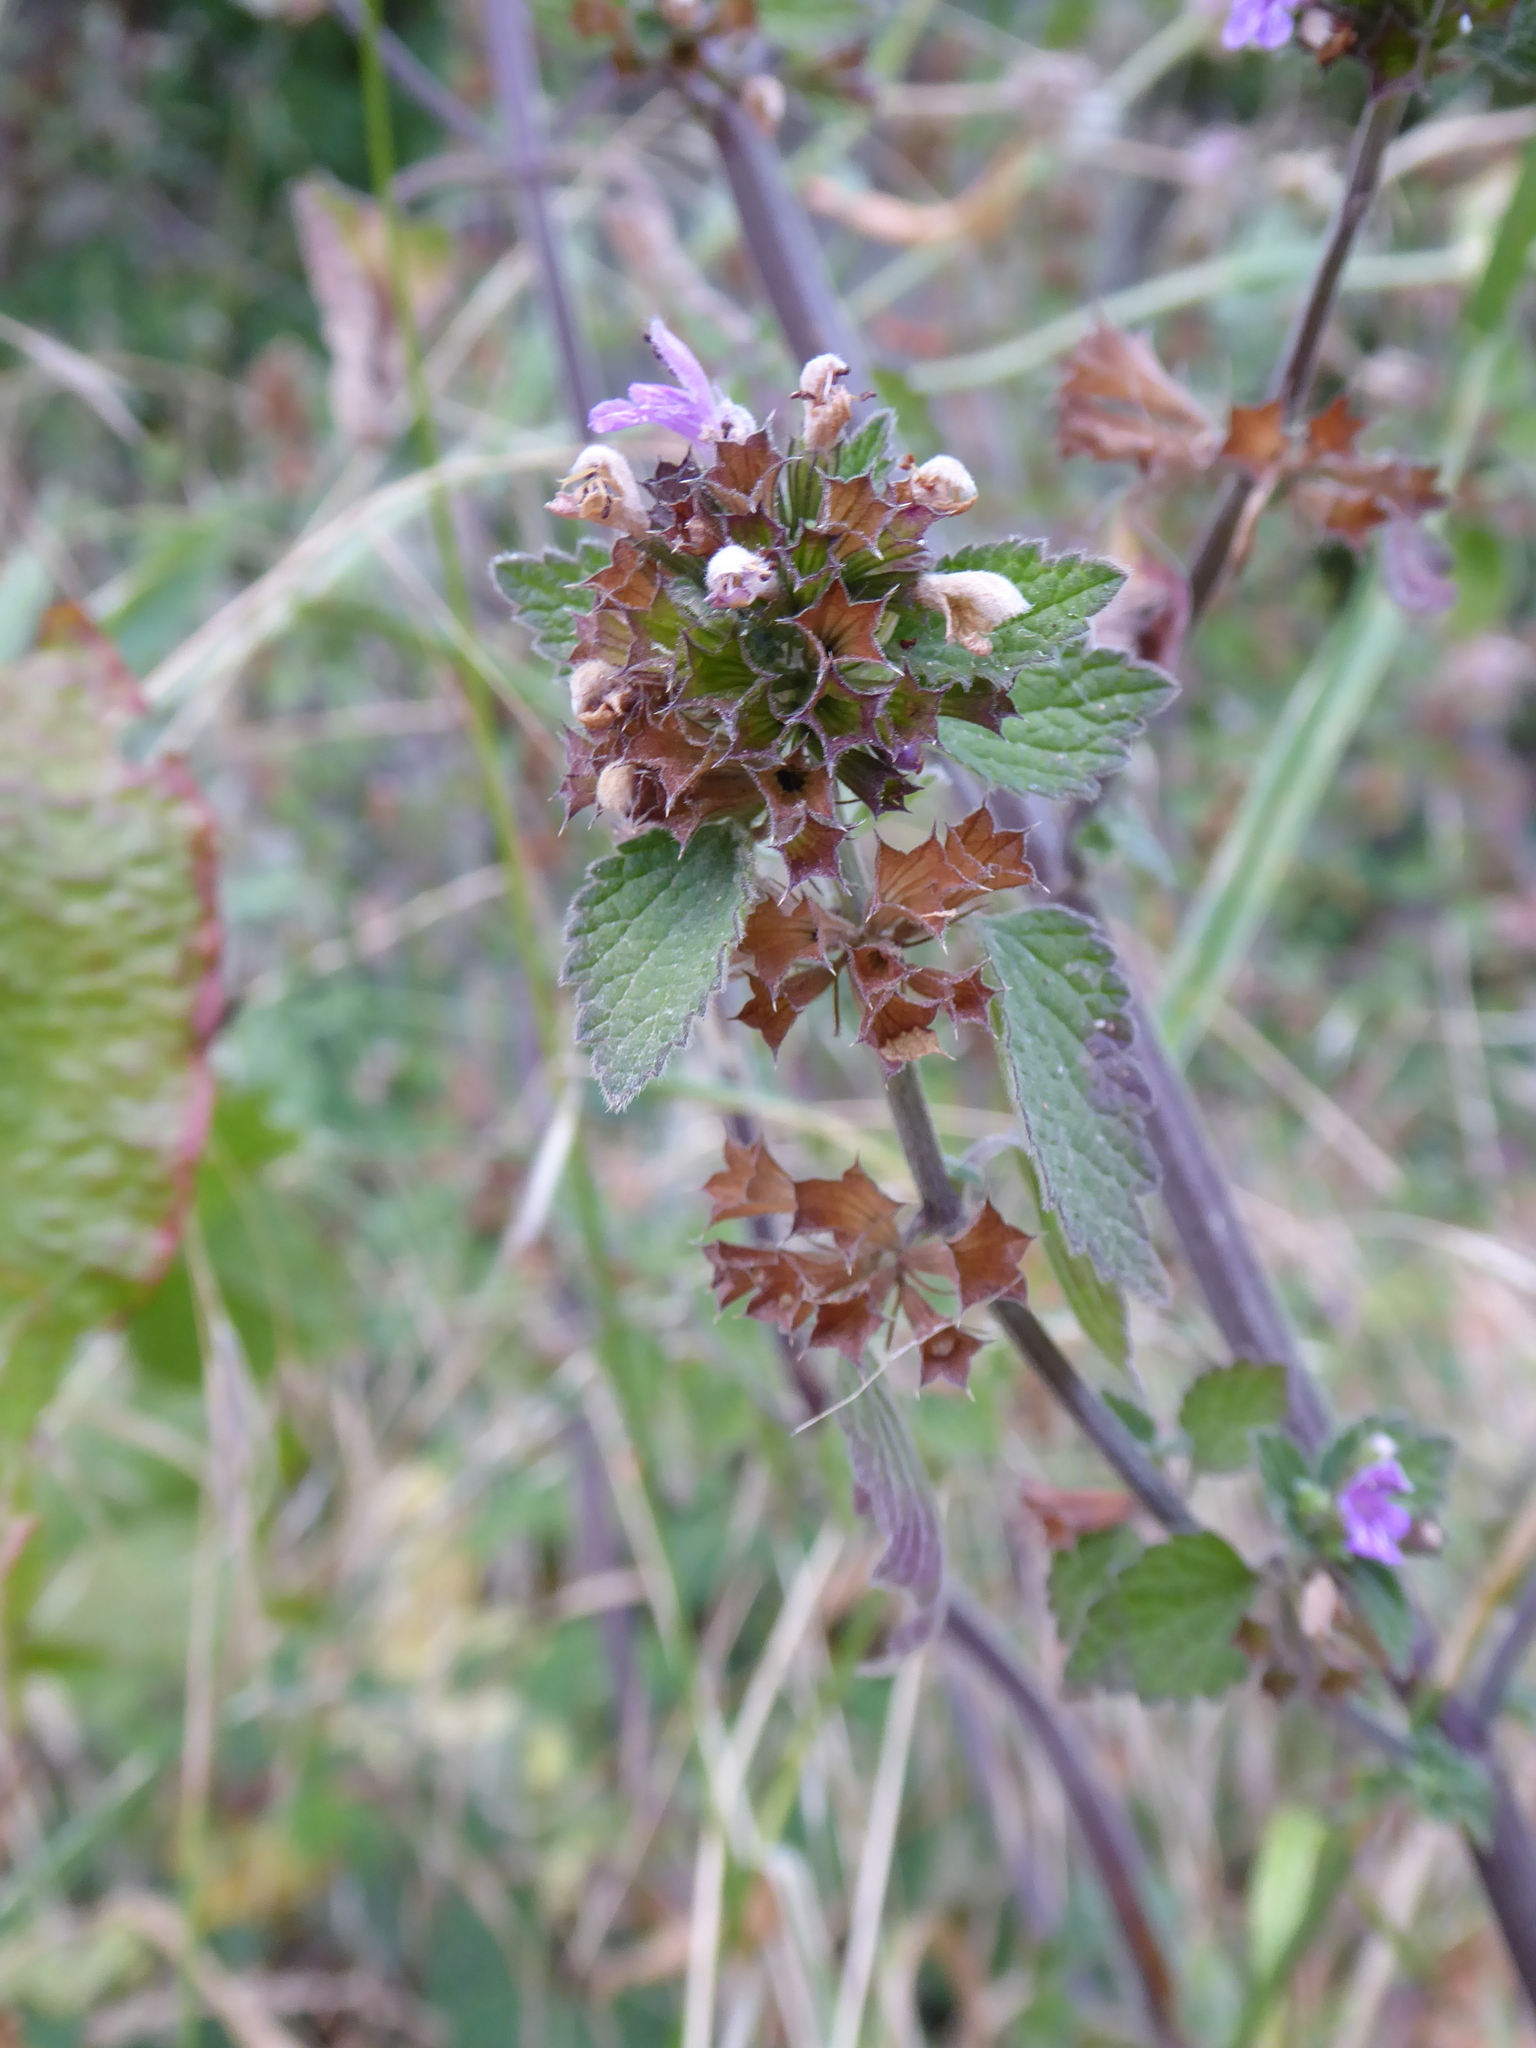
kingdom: Plantae
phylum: Tracheophyta
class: Magnoliopsida
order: Lamiales
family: Lamiaceae
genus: Ballota
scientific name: Ballota nigra
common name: Black horehound
